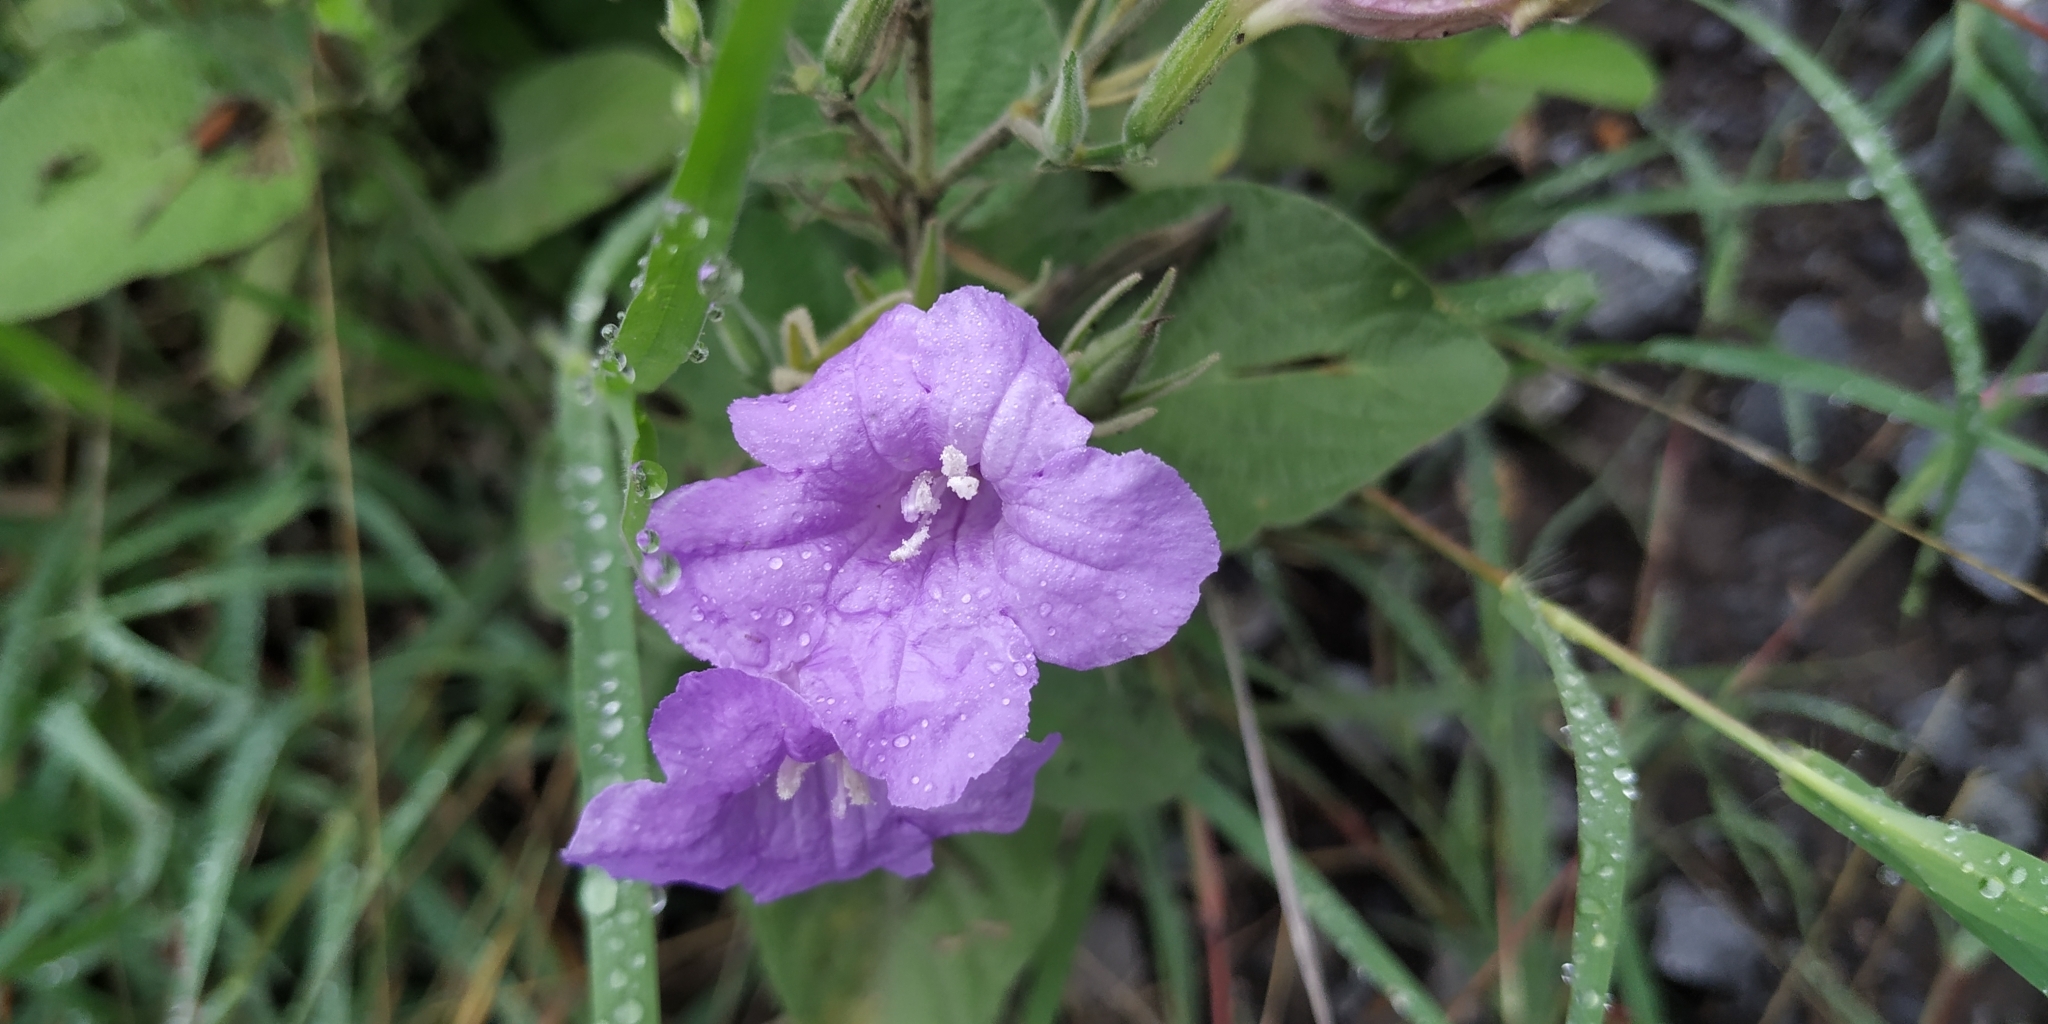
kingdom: Plantae
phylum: Tracheophyta
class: Magnoliopsida
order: Lamiales
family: Acanthaceae
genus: Ruellia
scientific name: Ruellia ciliatiflora
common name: Hairyflower wild petunia
